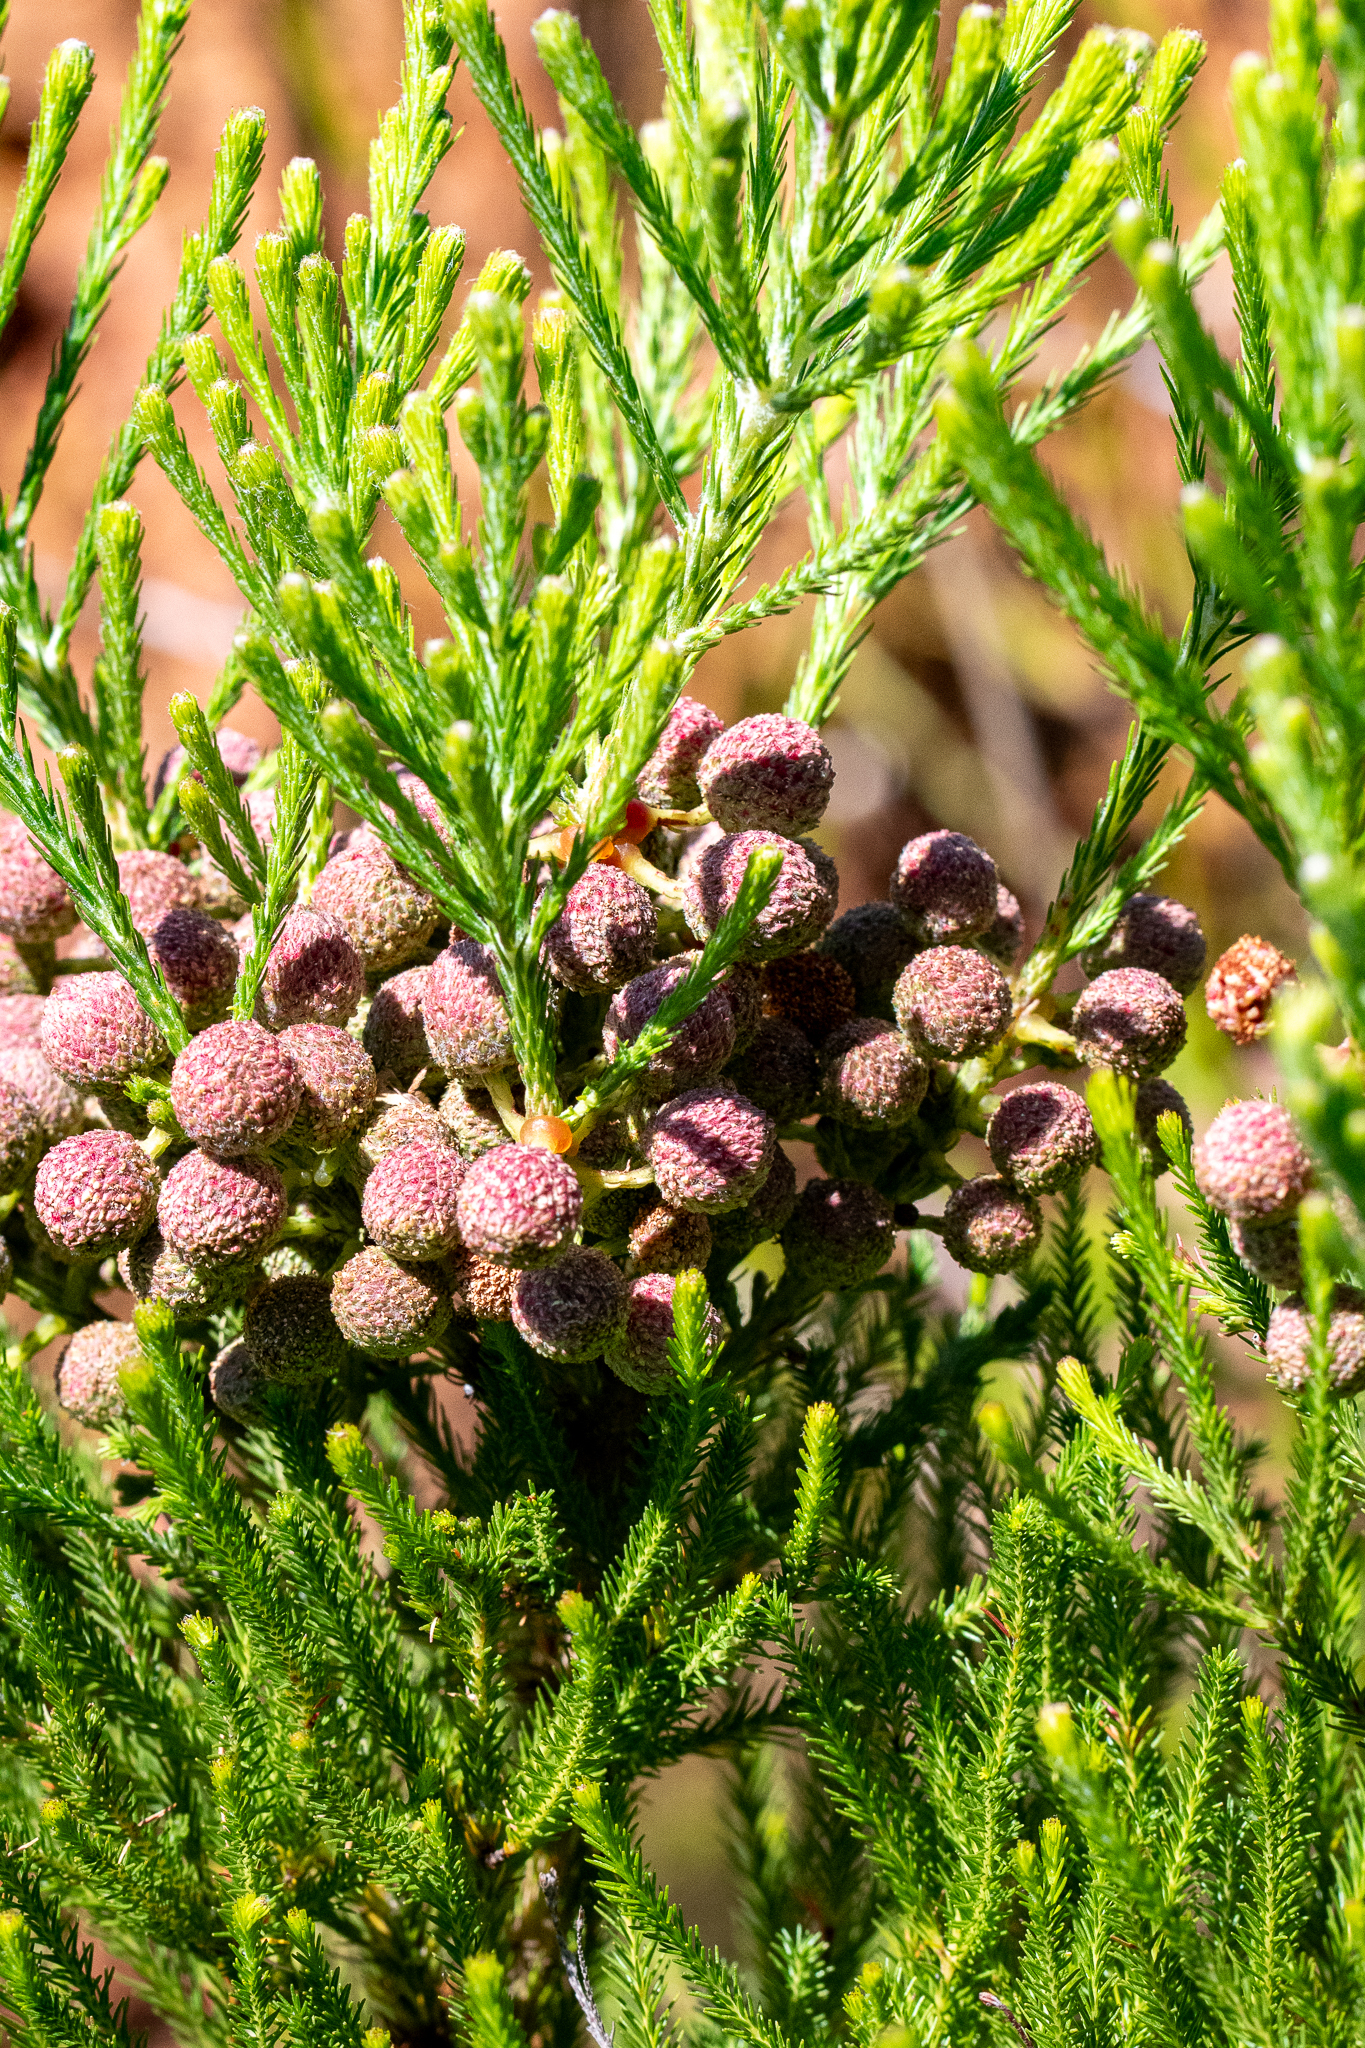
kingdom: Plantae
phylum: Tracheophyta
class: Magnoliopsida
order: Bruniales
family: Bruniaceae
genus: Berzelia
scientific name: Berzelia lanuginosa
